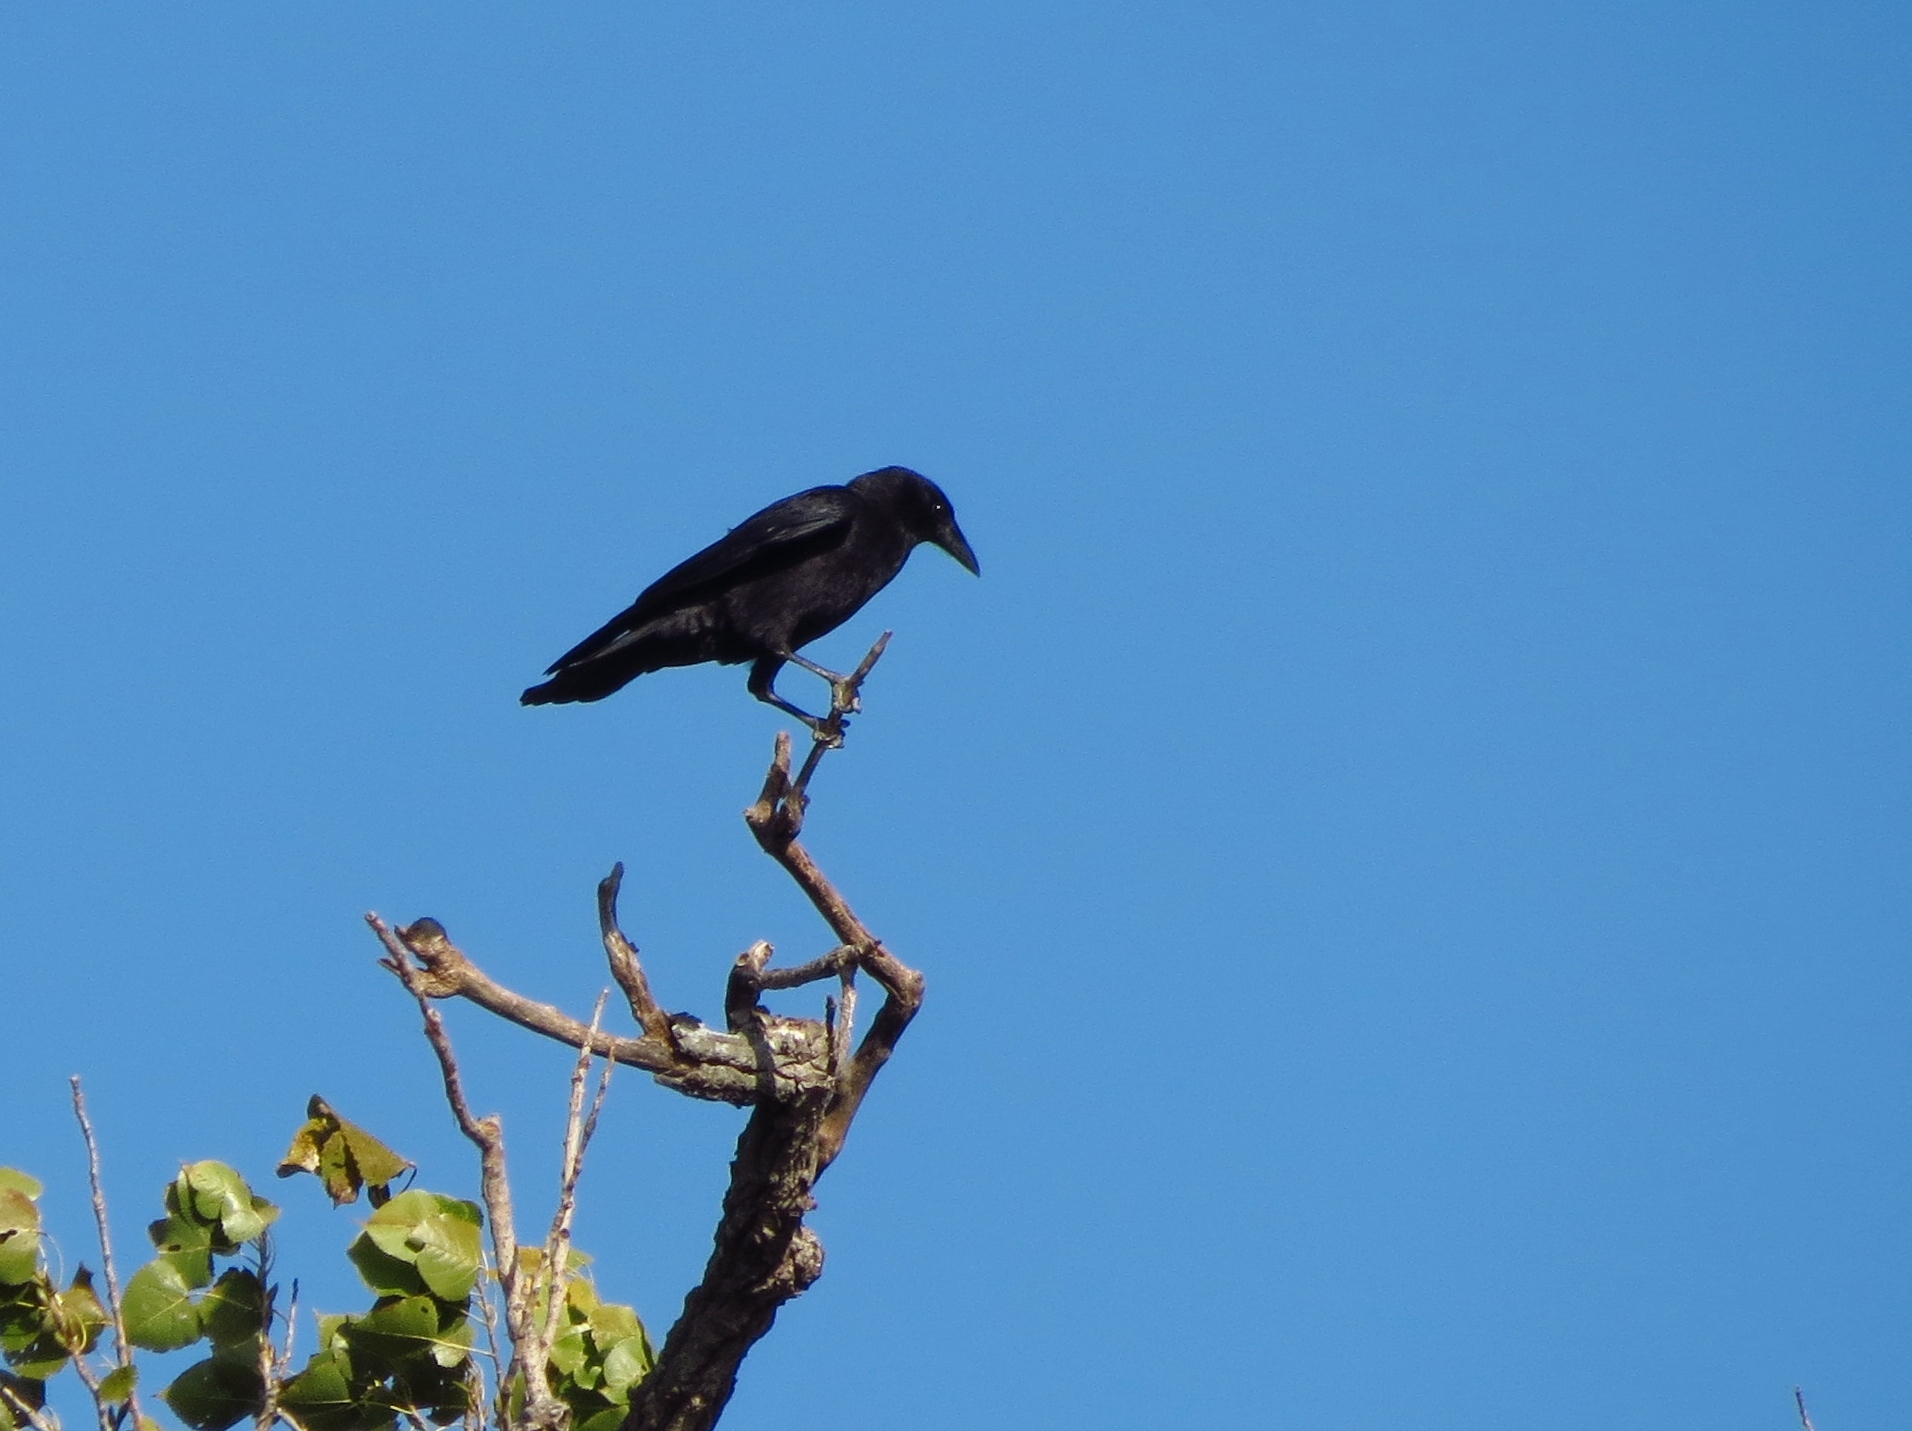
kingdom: Animalia
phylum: Chordata
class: Aves
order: Passeriformes
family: Corvidae
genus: Corvus
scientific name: Corvus brachyrhynchos
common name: American crow
